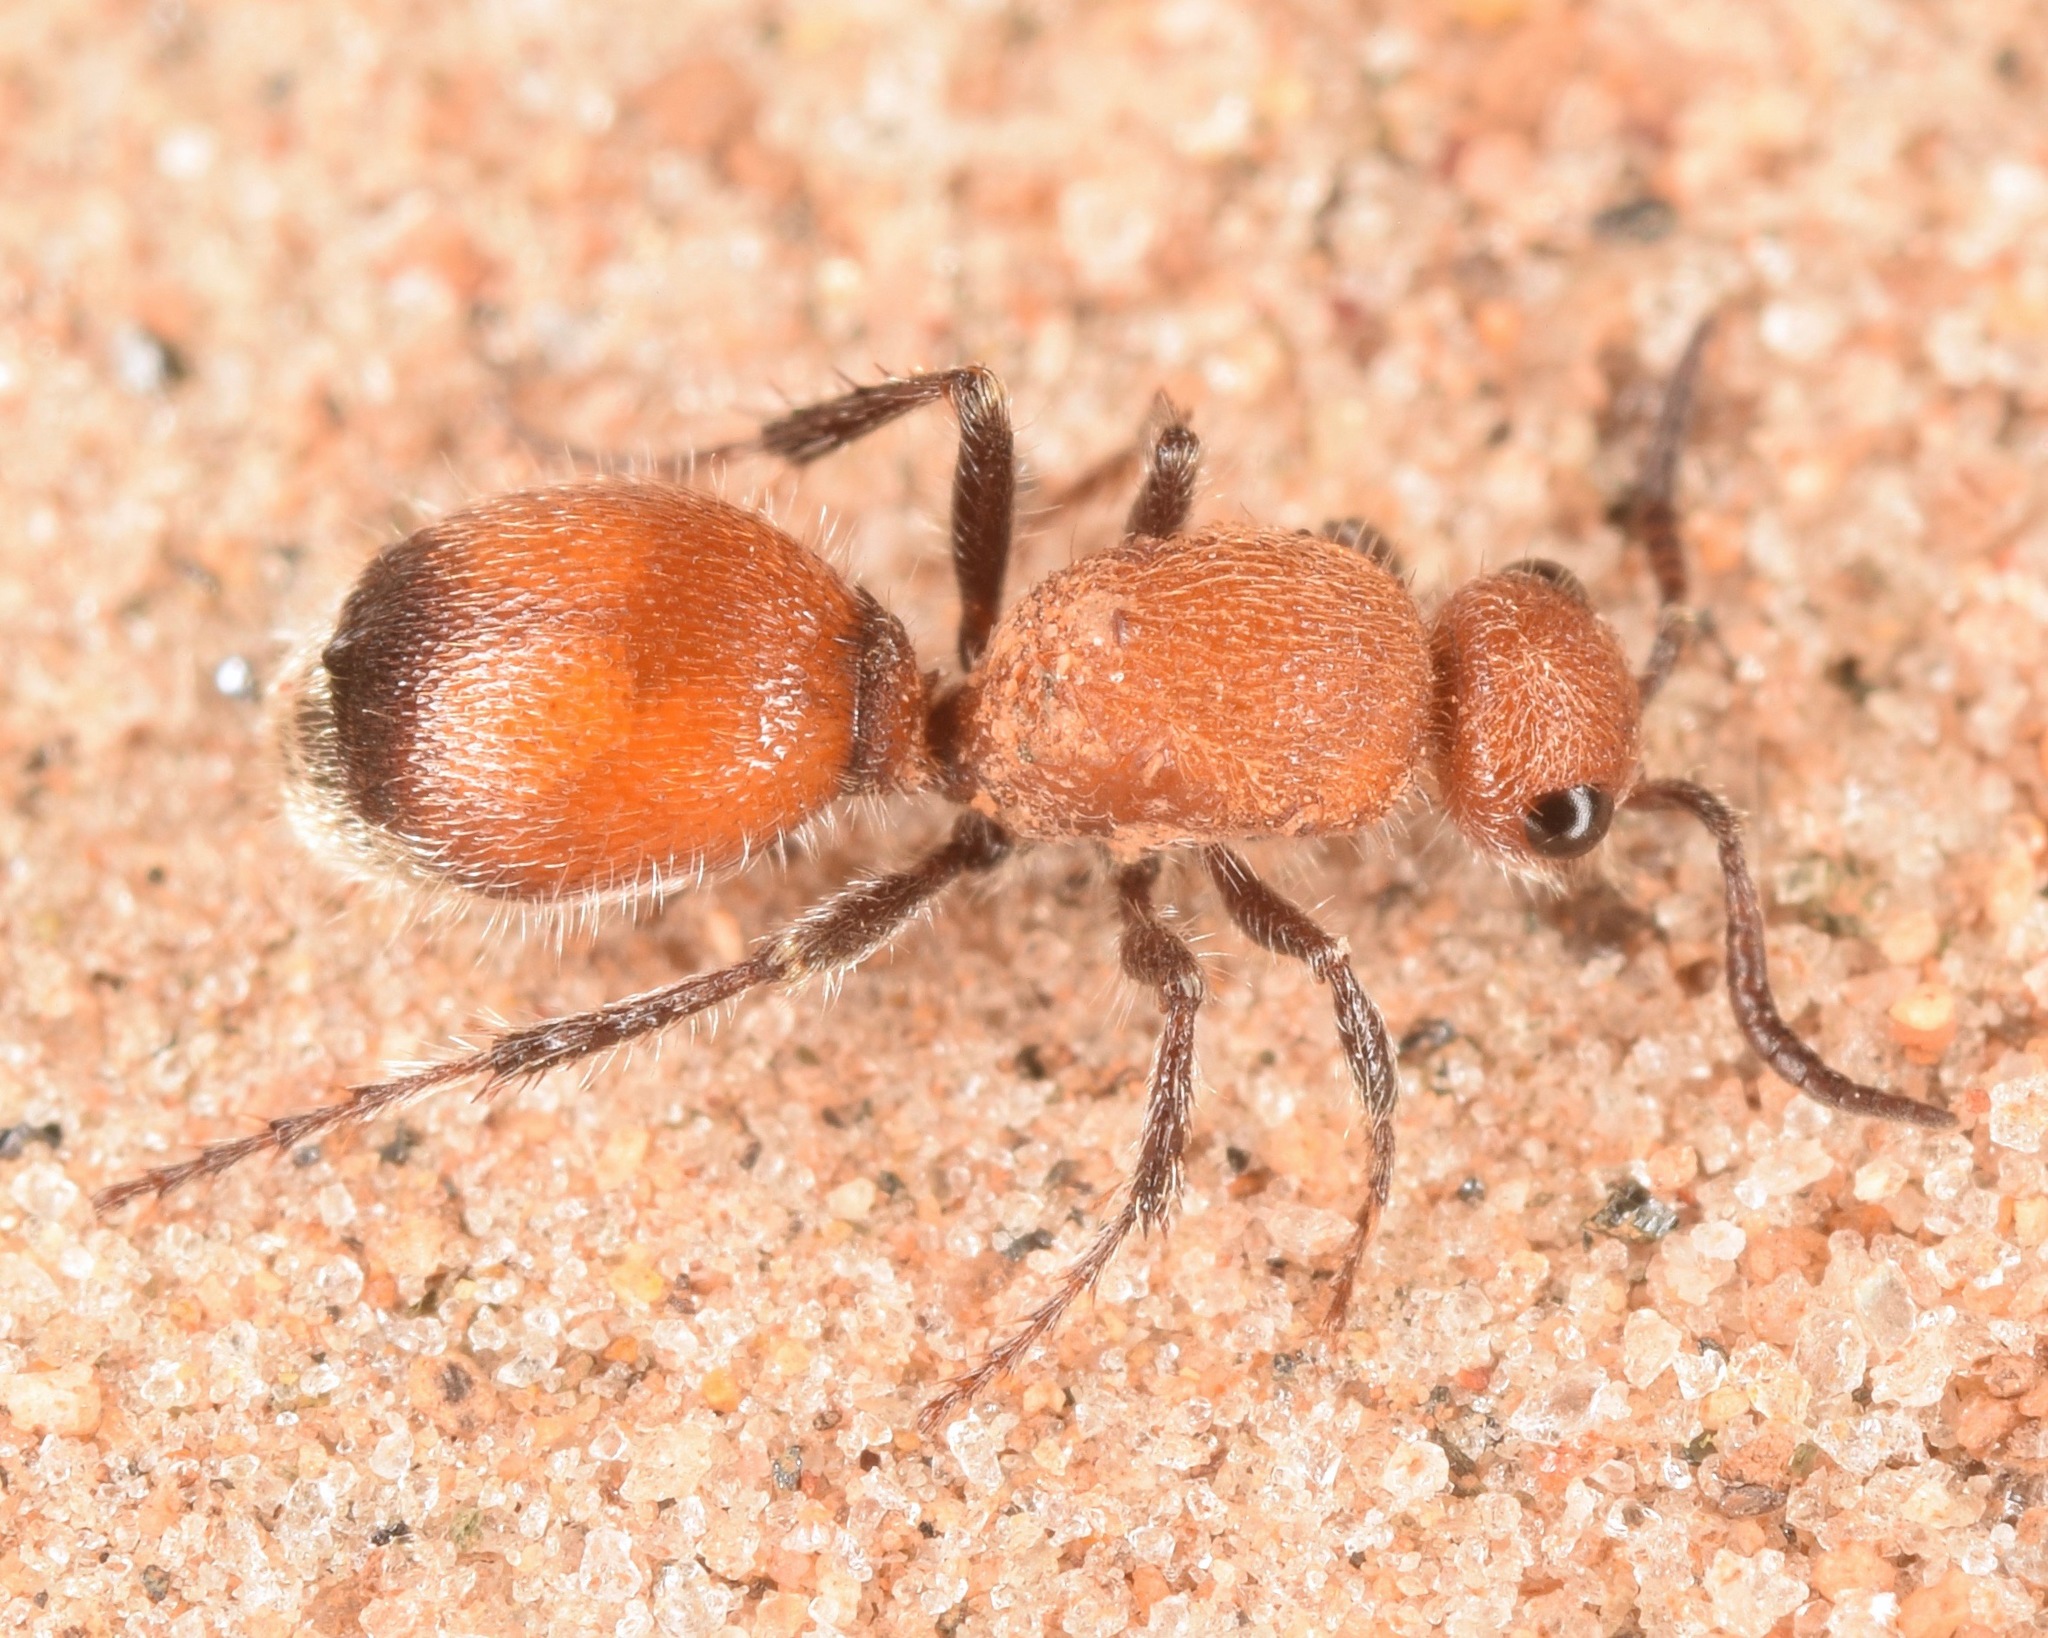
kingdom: Animalia
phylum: Arthropoda
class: Insecta
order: Hymenoptera
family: Mutillidae
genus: Dasymutilla
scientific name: Dasymutilla
